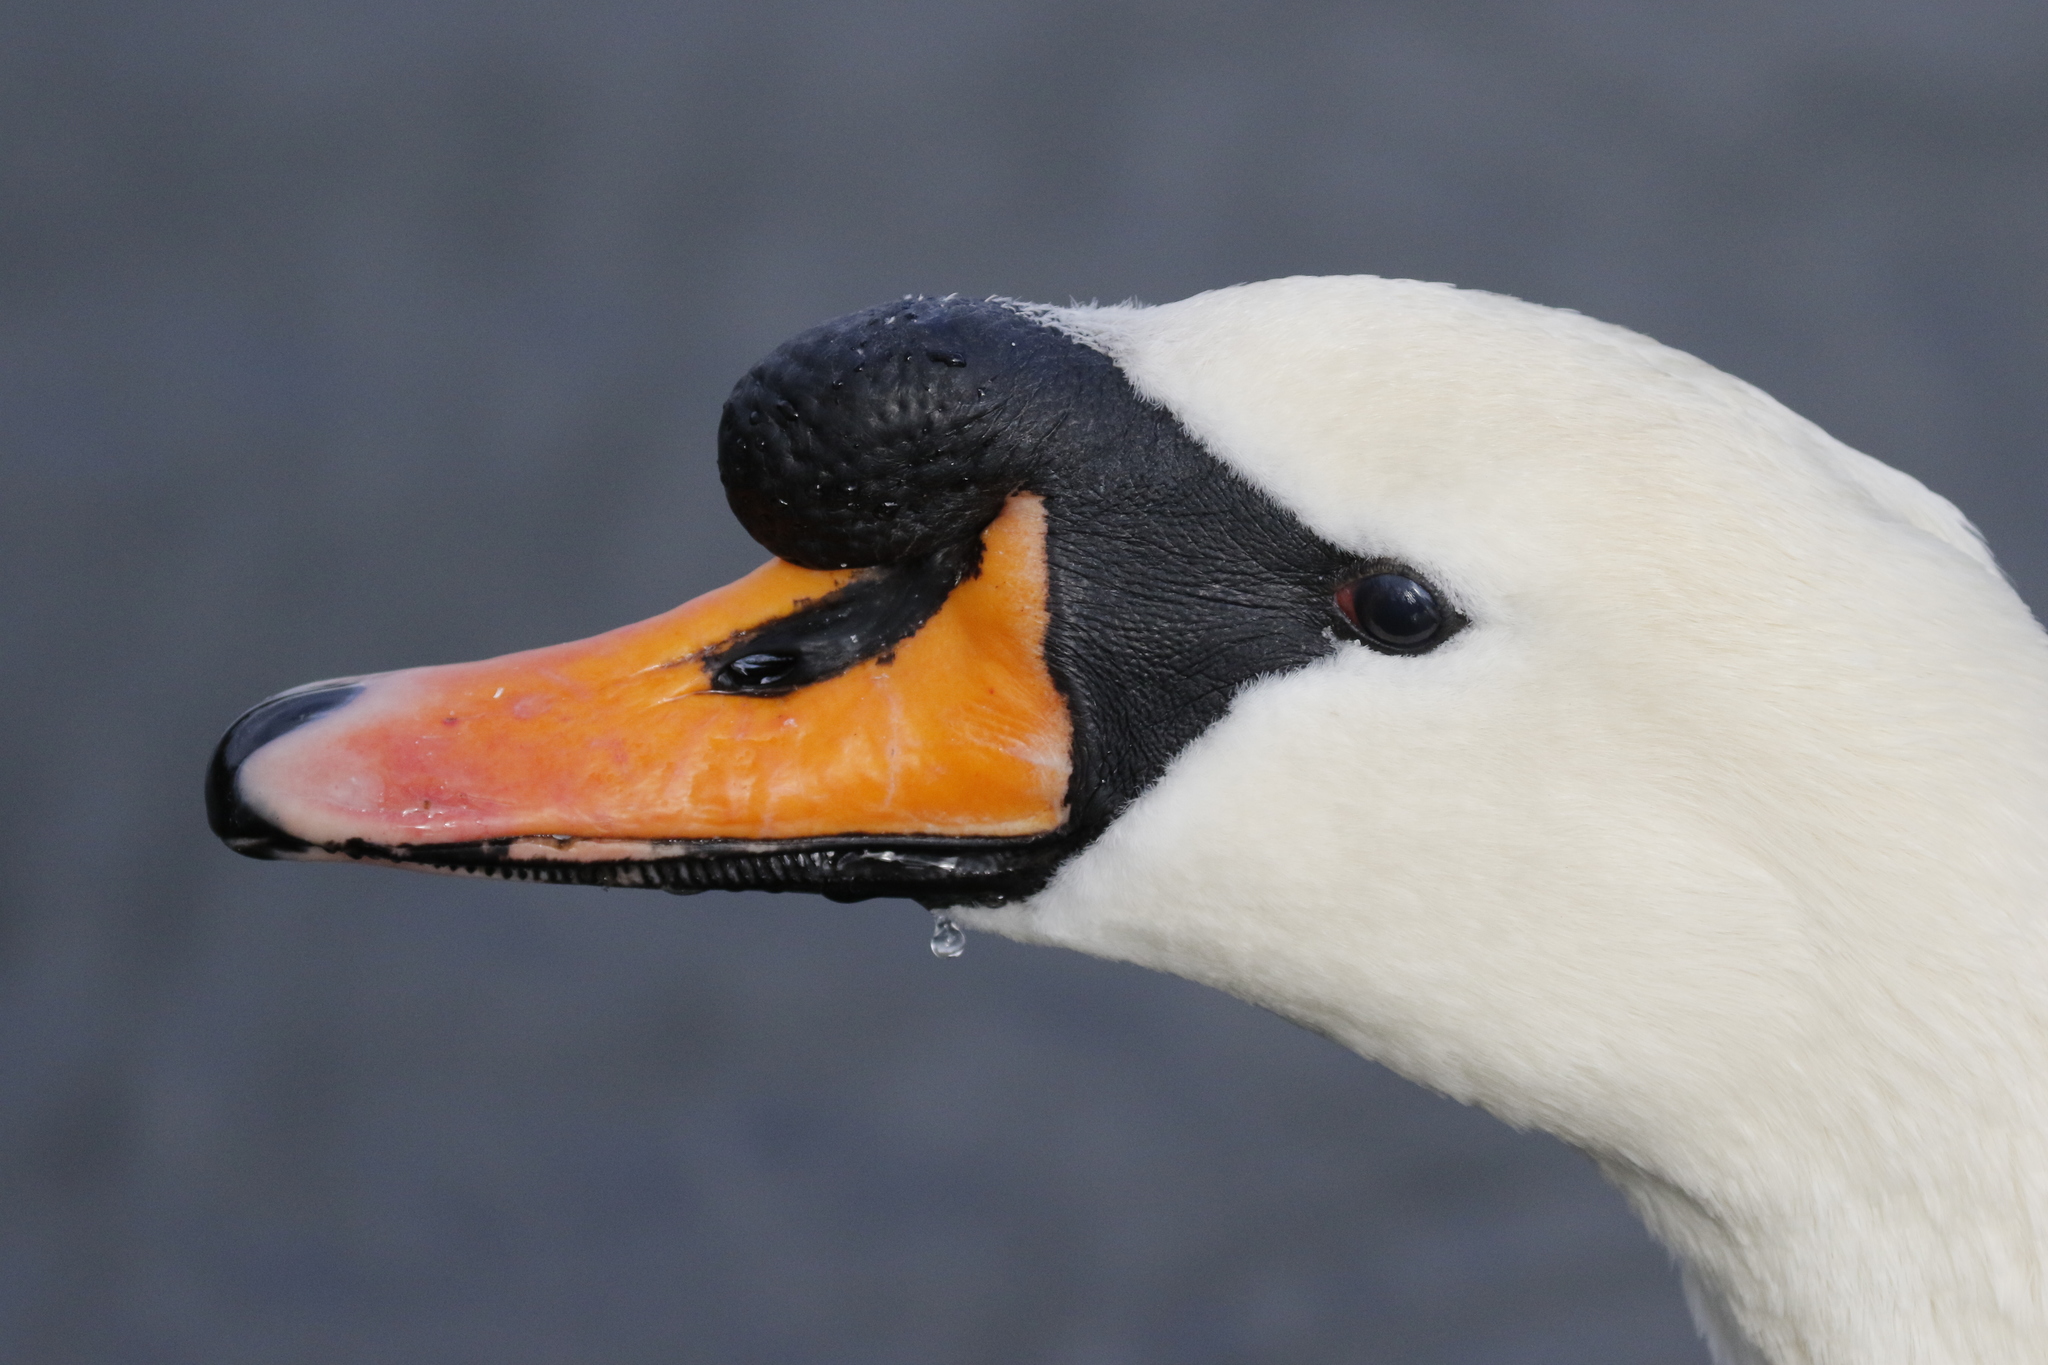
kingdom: Animalia
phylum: Chordata
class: Aves
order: Anseriformes
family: Anatidae
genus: Cygnus
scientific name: Cygnus olor
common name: Mute swan
